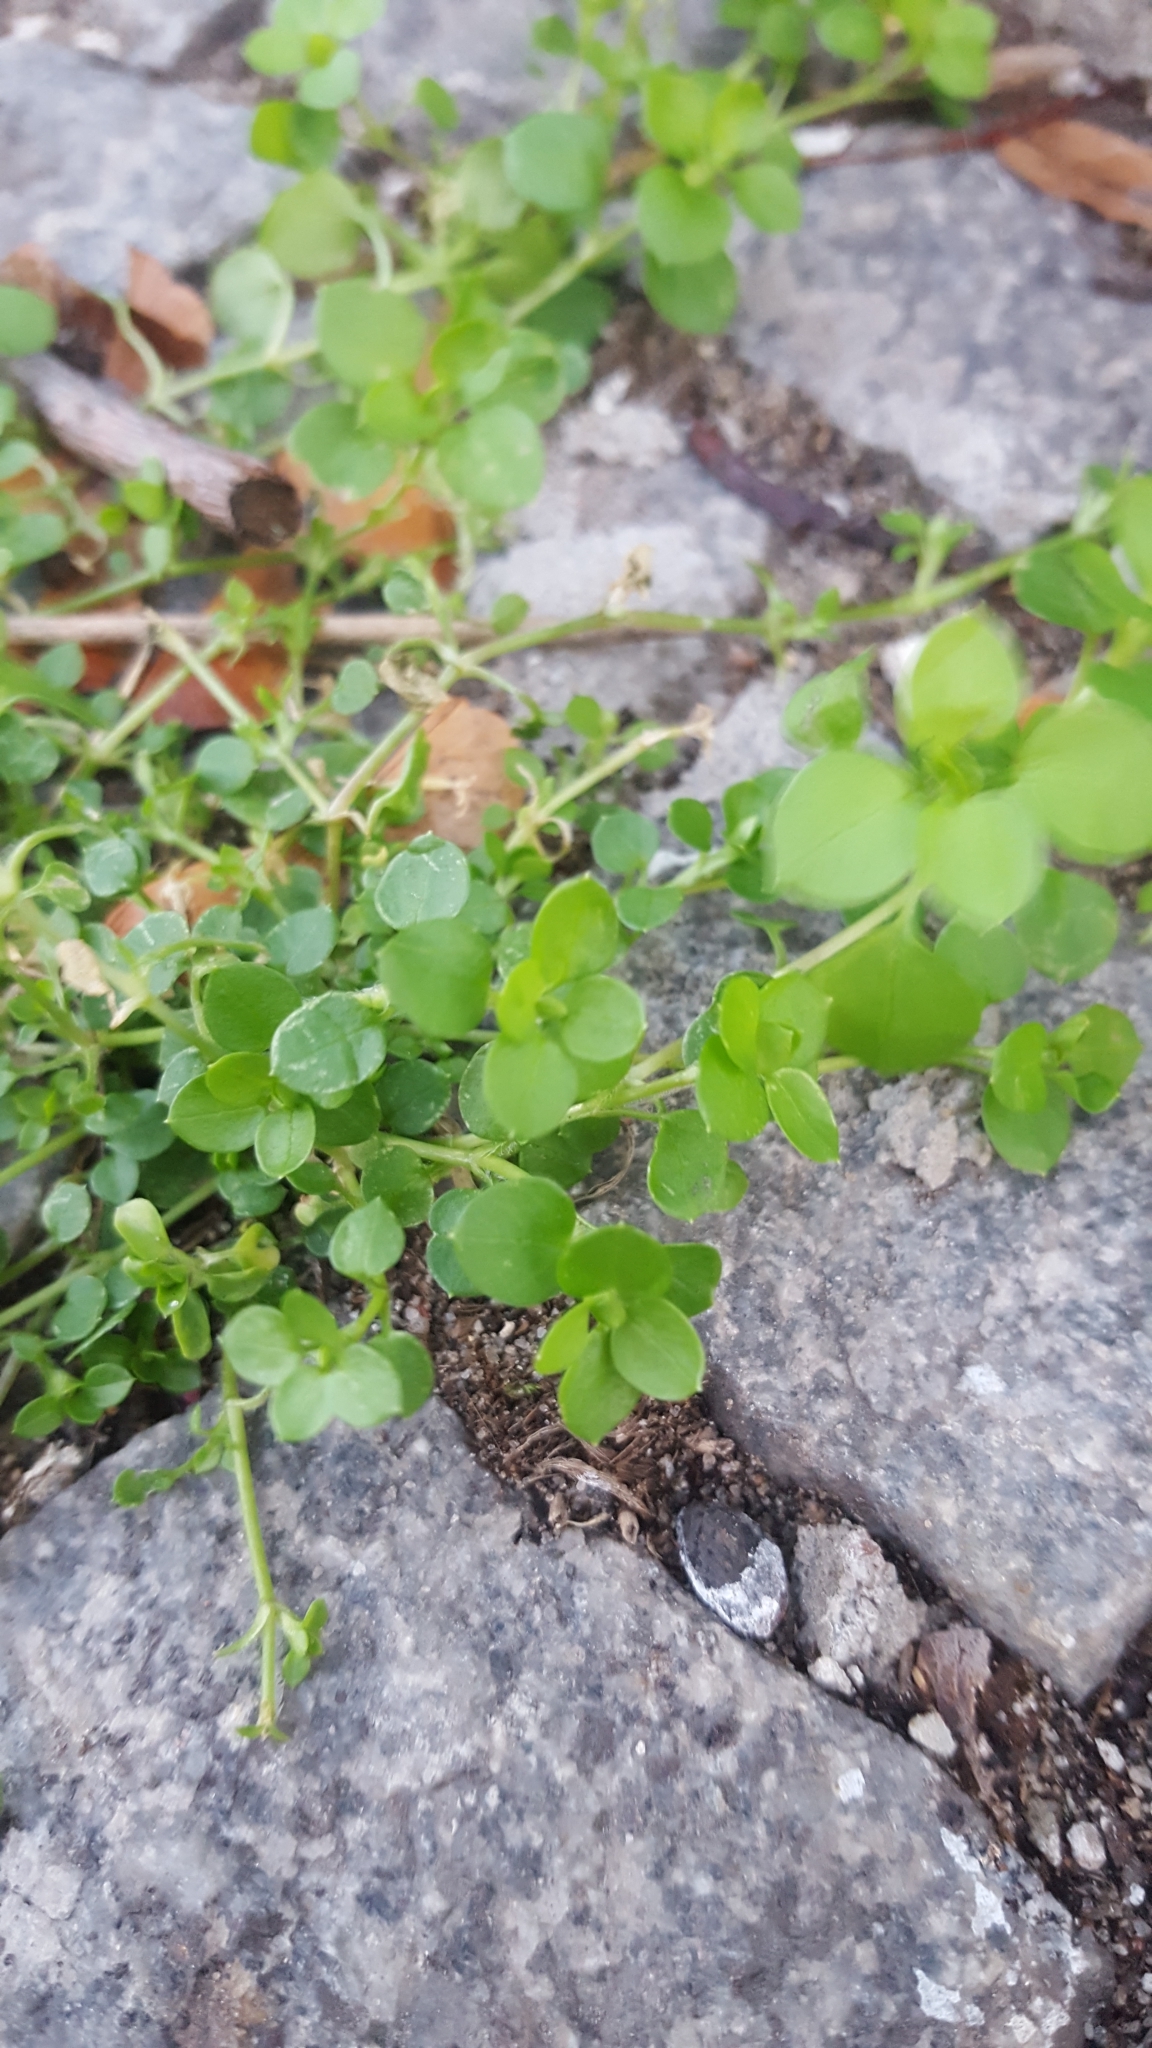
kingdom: Plantae
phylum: Tracheophyta
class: Magnoliopsida
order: Caryophyllales
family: Caryophyllaceae
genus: Stellaria
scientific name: Stellaria media
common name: Common chickweed
